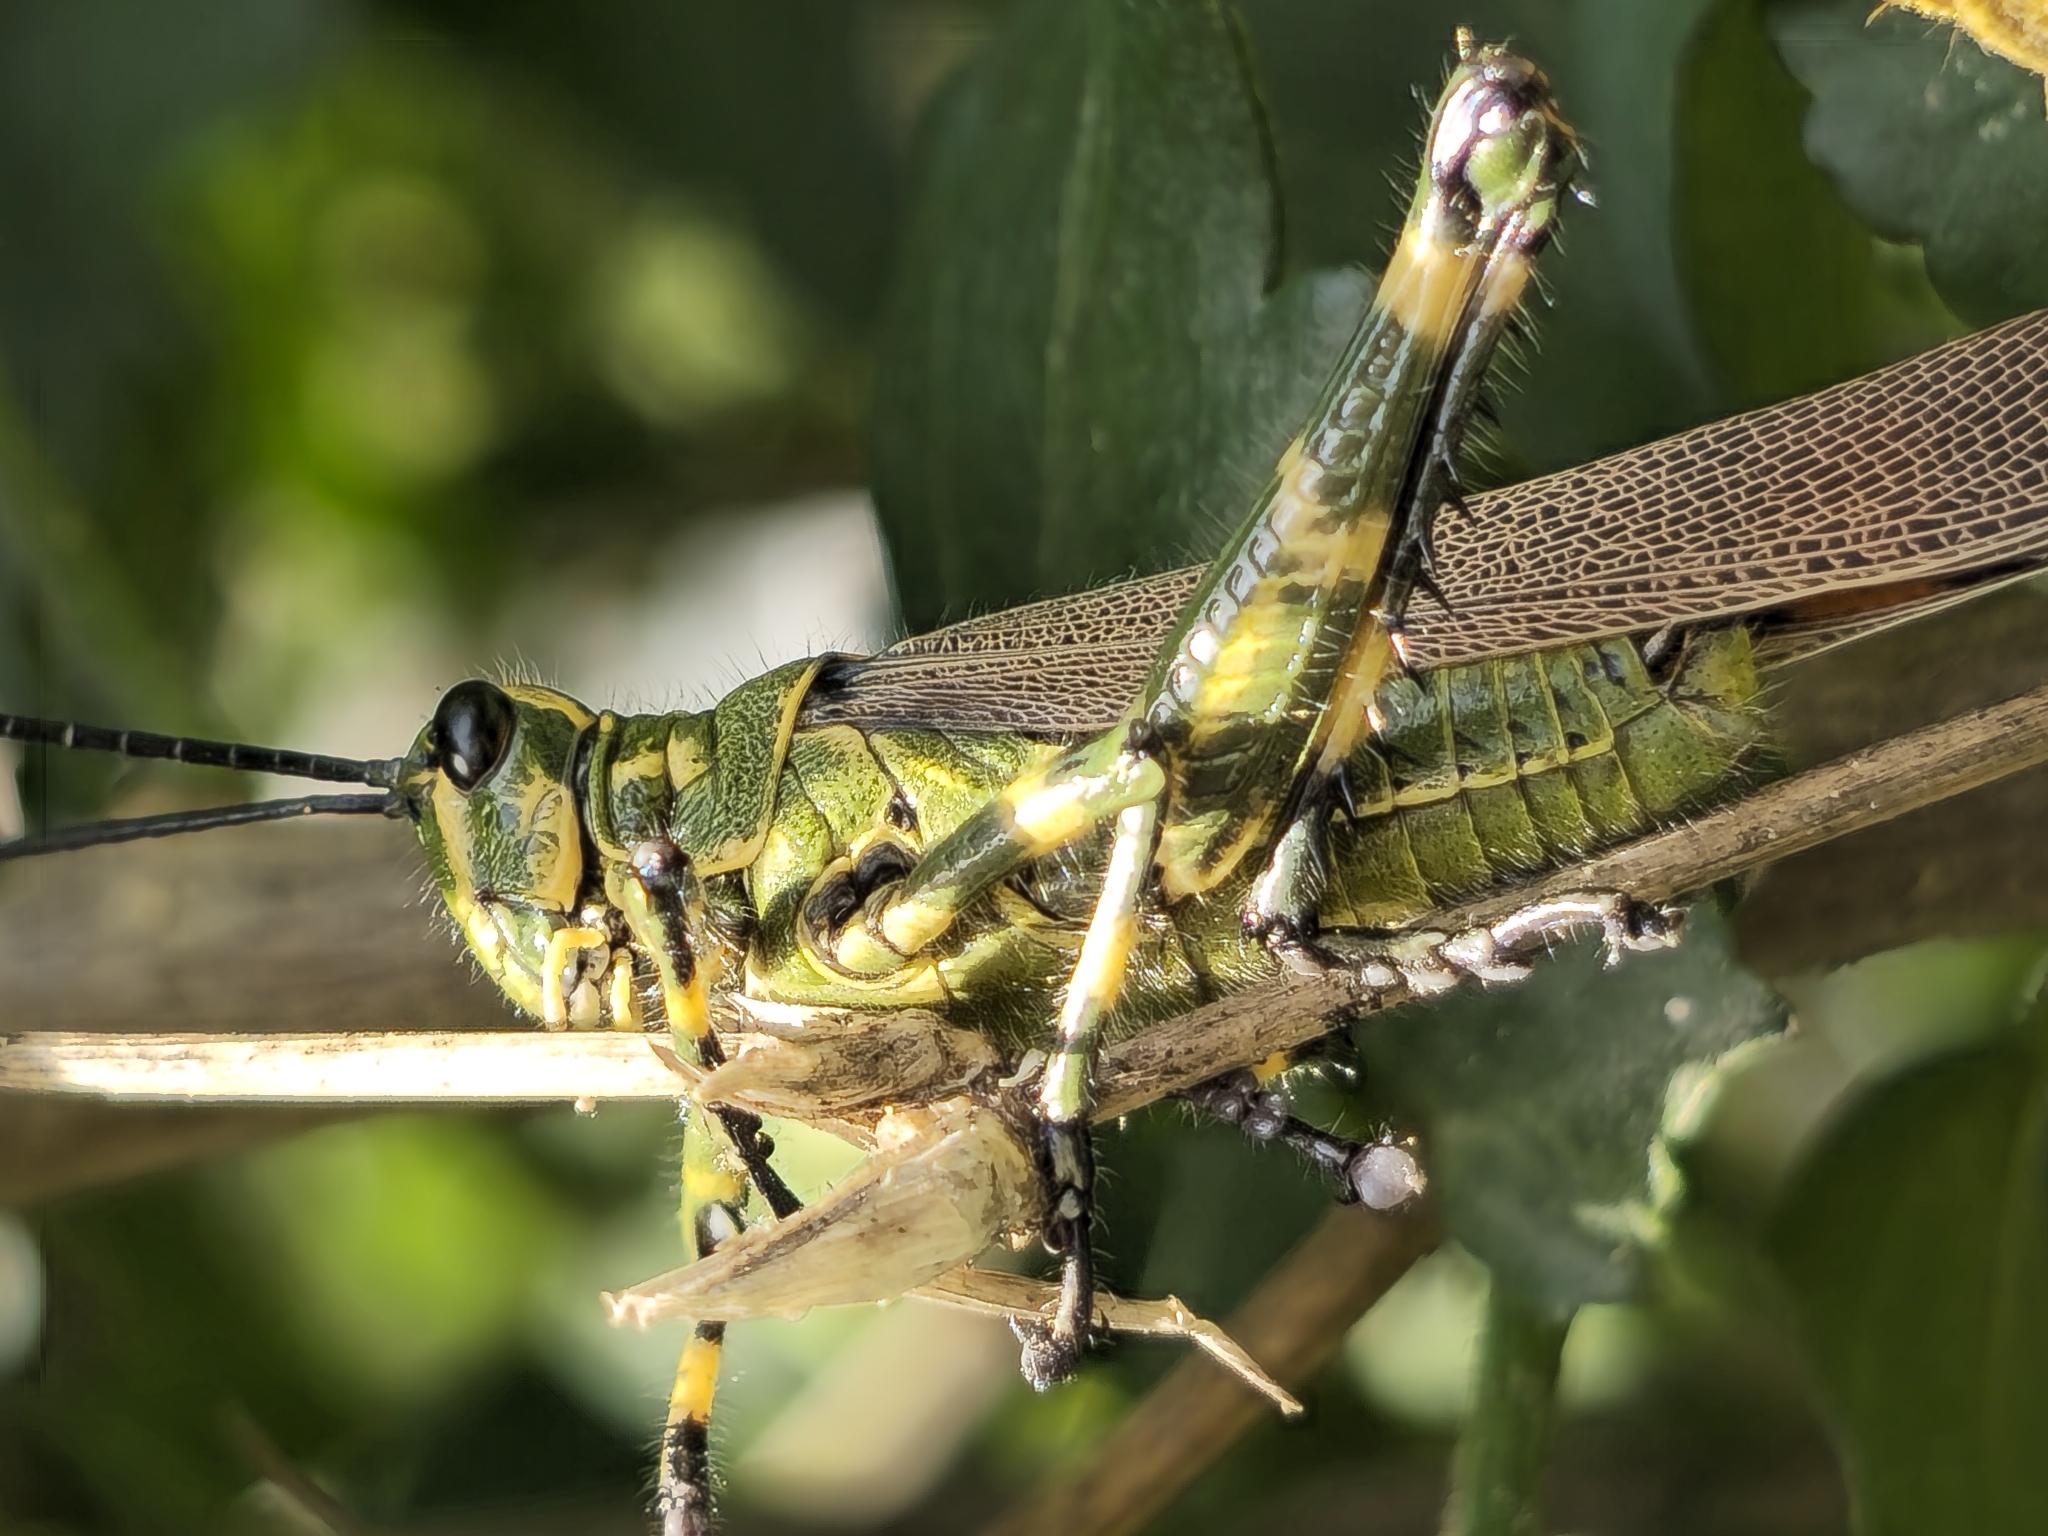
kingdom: Animalia
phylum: Arthropoda
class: Insecta
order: Orthoptera
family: Romaleidae
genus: Chromacris
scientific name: Chromacris speciosa
